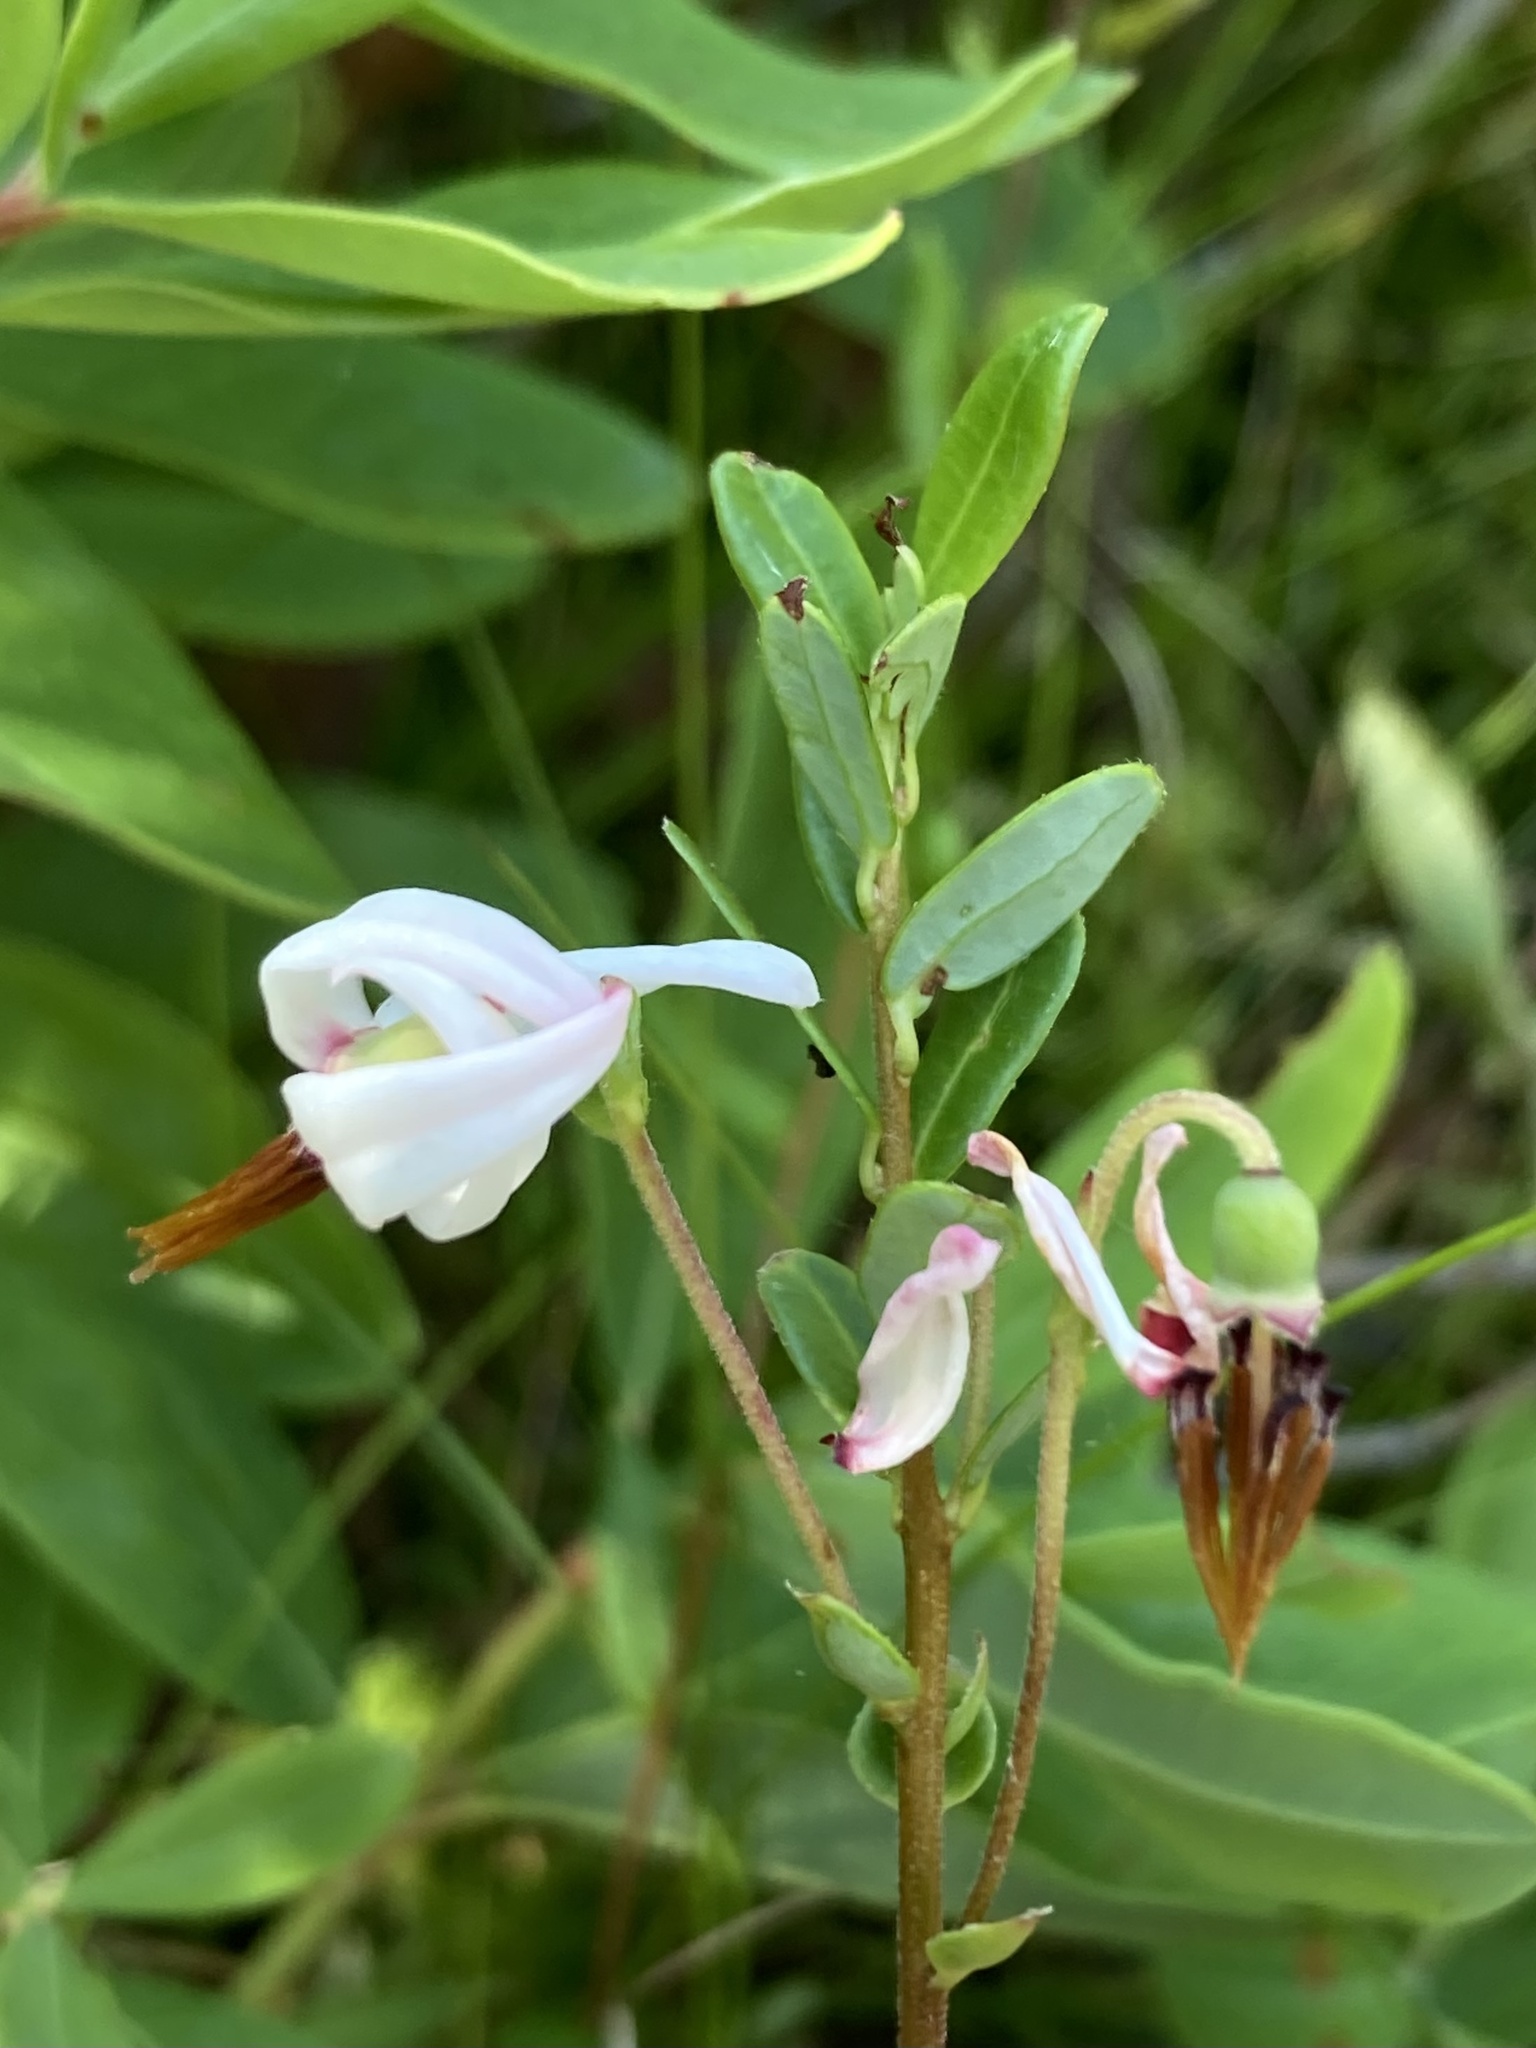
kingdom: Plantae
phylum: Tracheophyta
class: Magnoliopsida
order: Ericales
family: Ericaceae
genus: Vaccinium
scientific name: Vaccinium macrocarpon
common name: American cranberry
